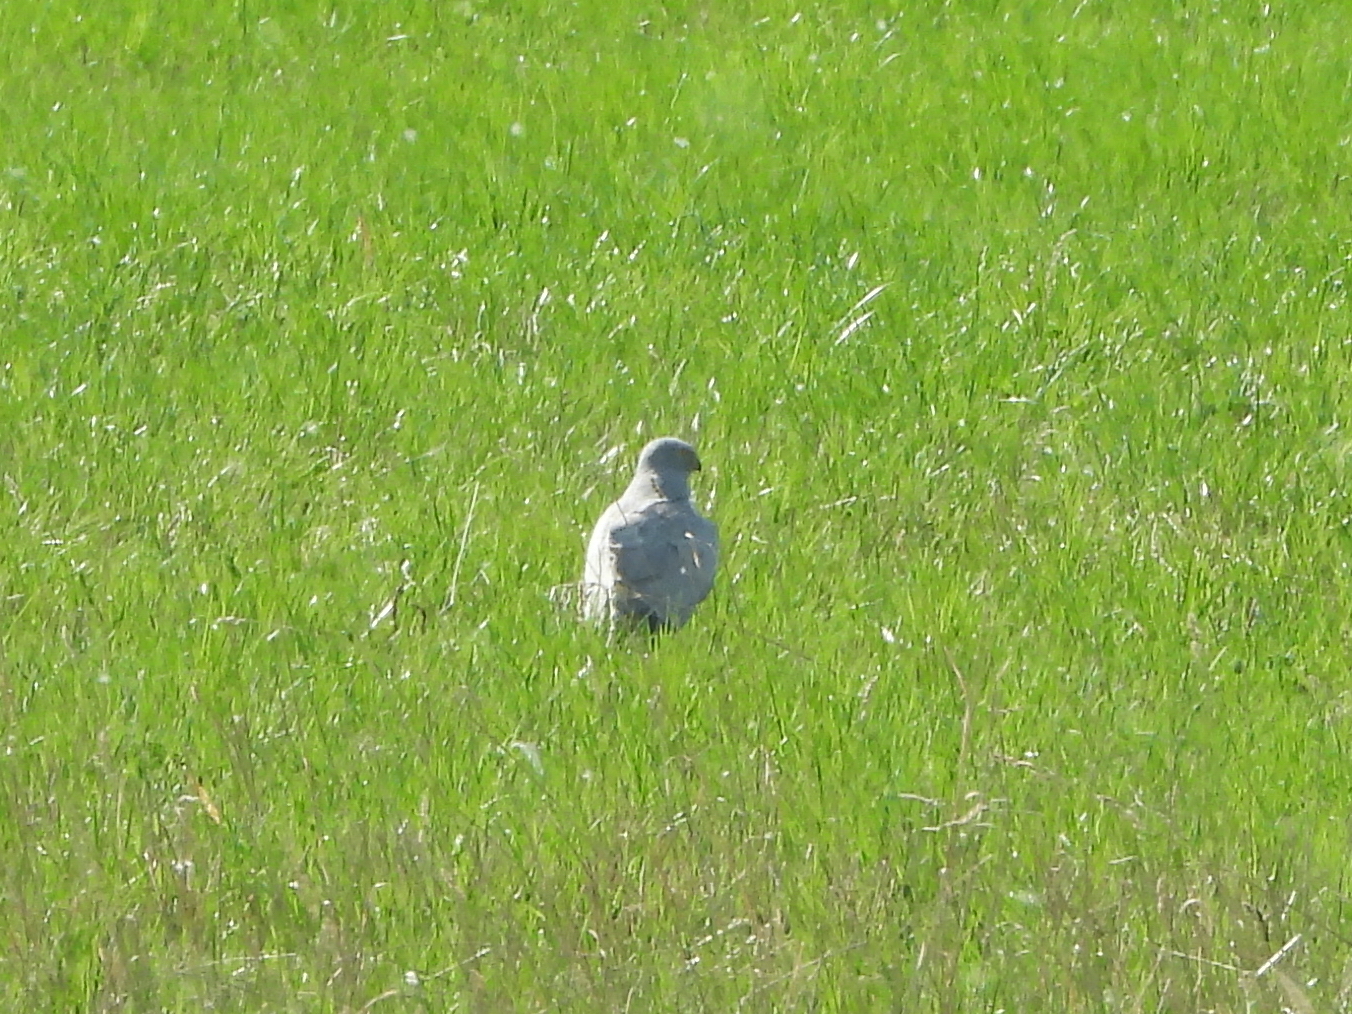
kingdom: Animalia
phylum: Chordata
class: Aves
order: Accipitriformes
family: Accipitridae
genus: Circus
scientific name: Circus cyaneus
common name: Hen harrier
